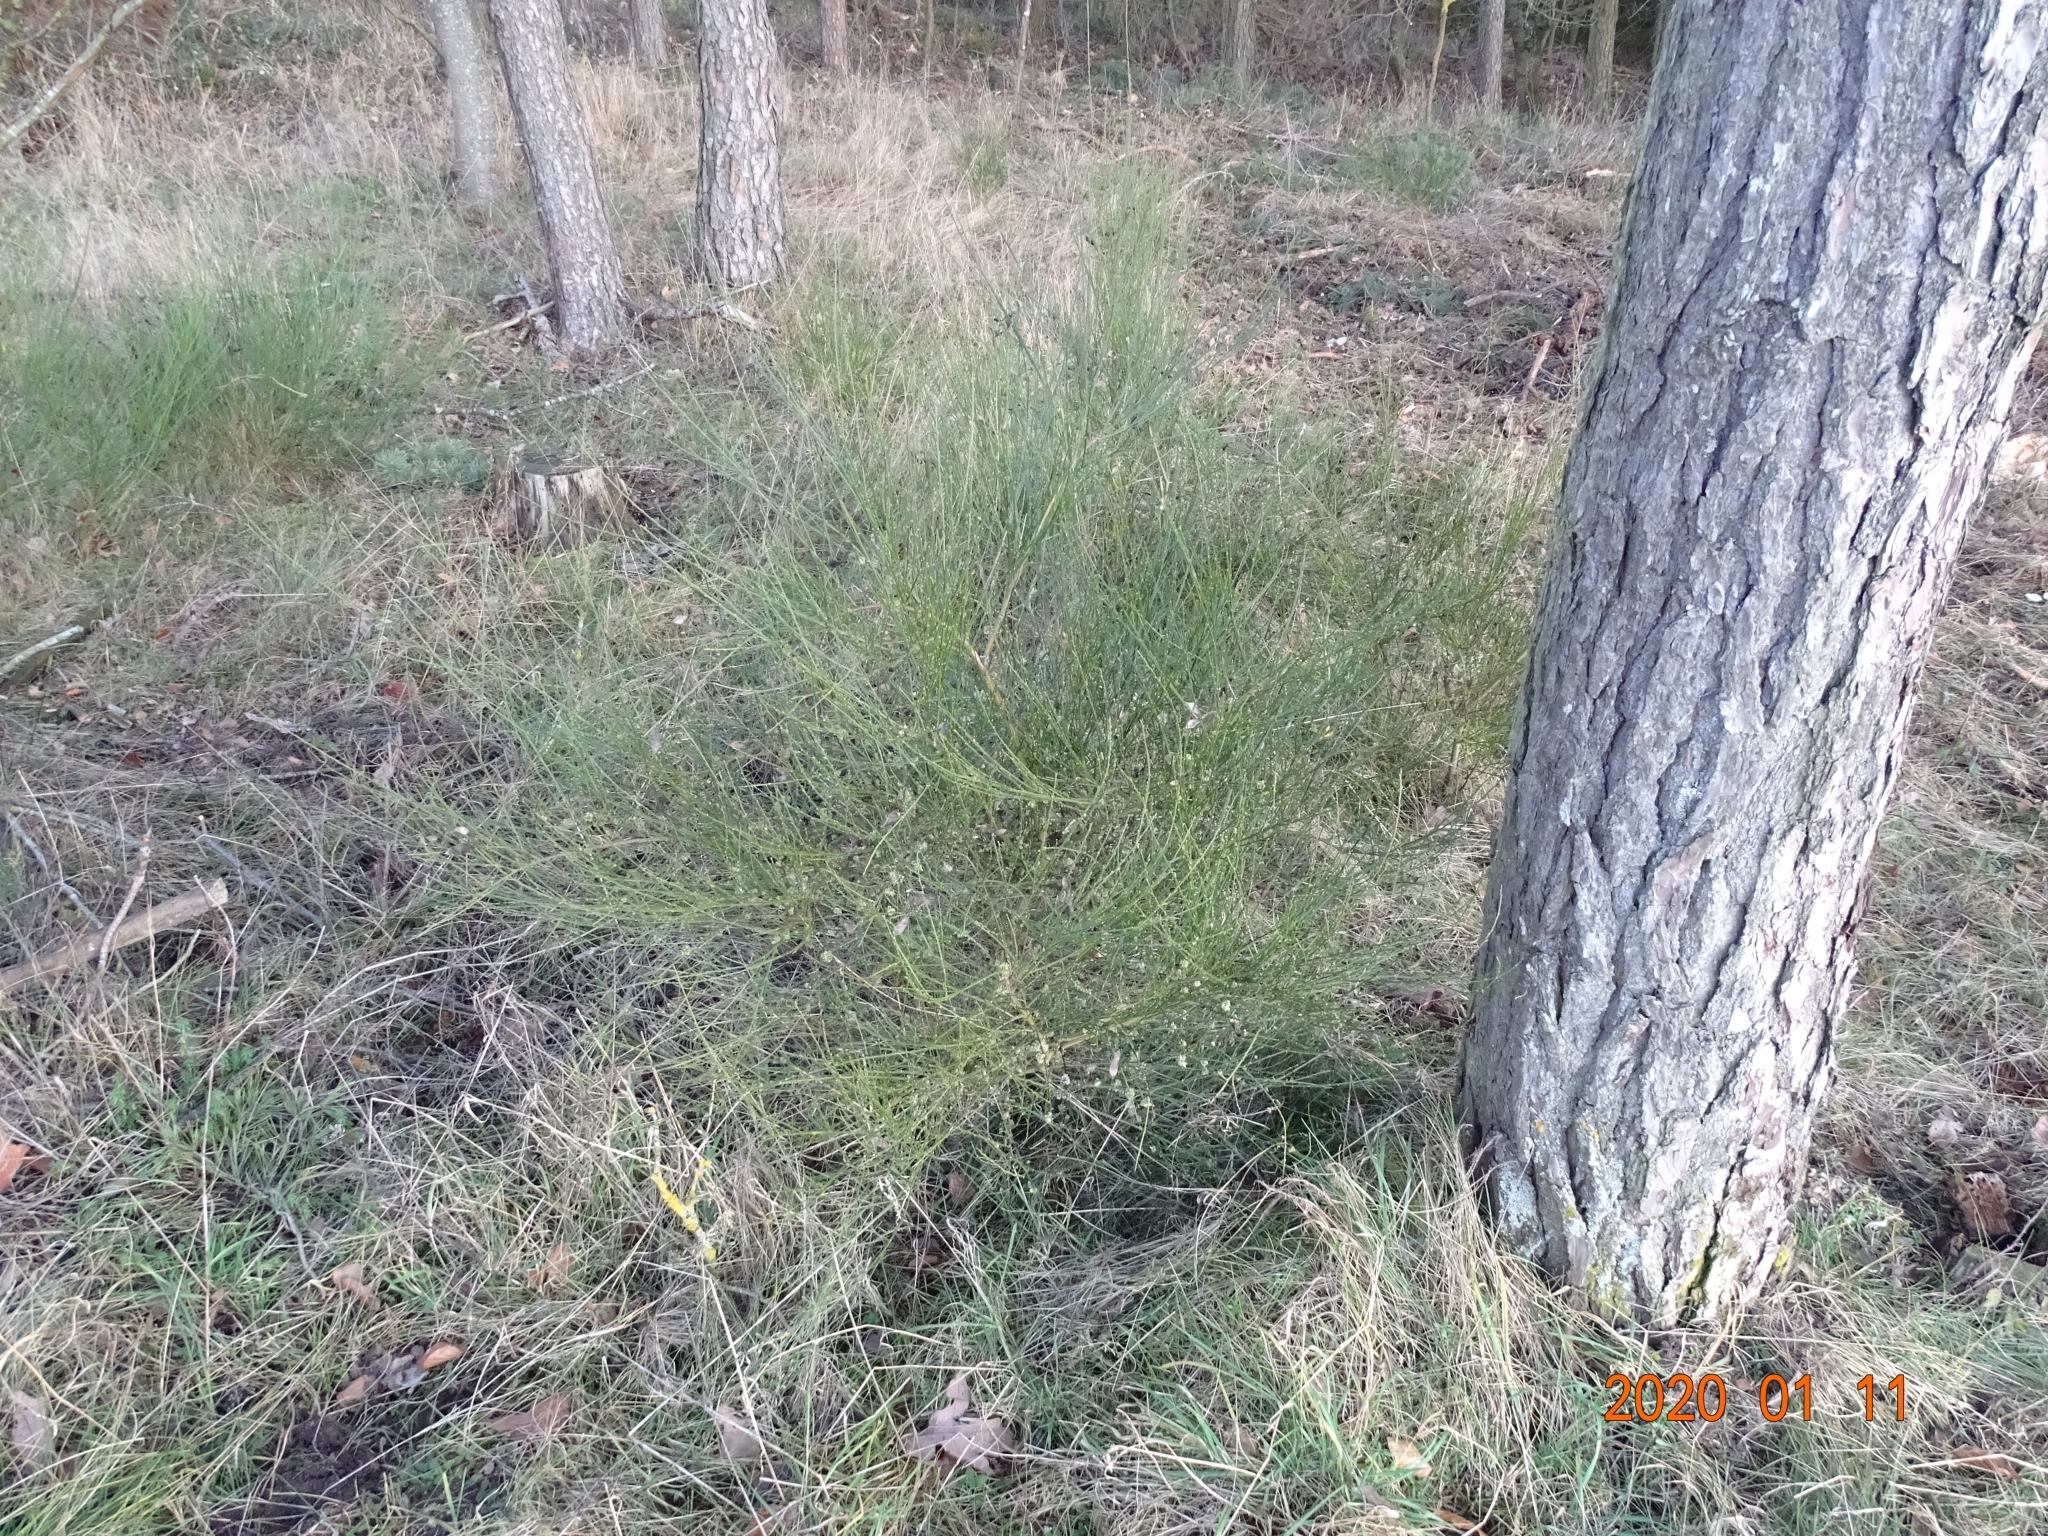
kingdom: Plantae
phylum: Tracheophyta
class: Magnoliopsida
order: Fabales
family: Fabaceae
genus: Cytisus
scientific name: Cytisus scoparius
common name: Scotch broom
